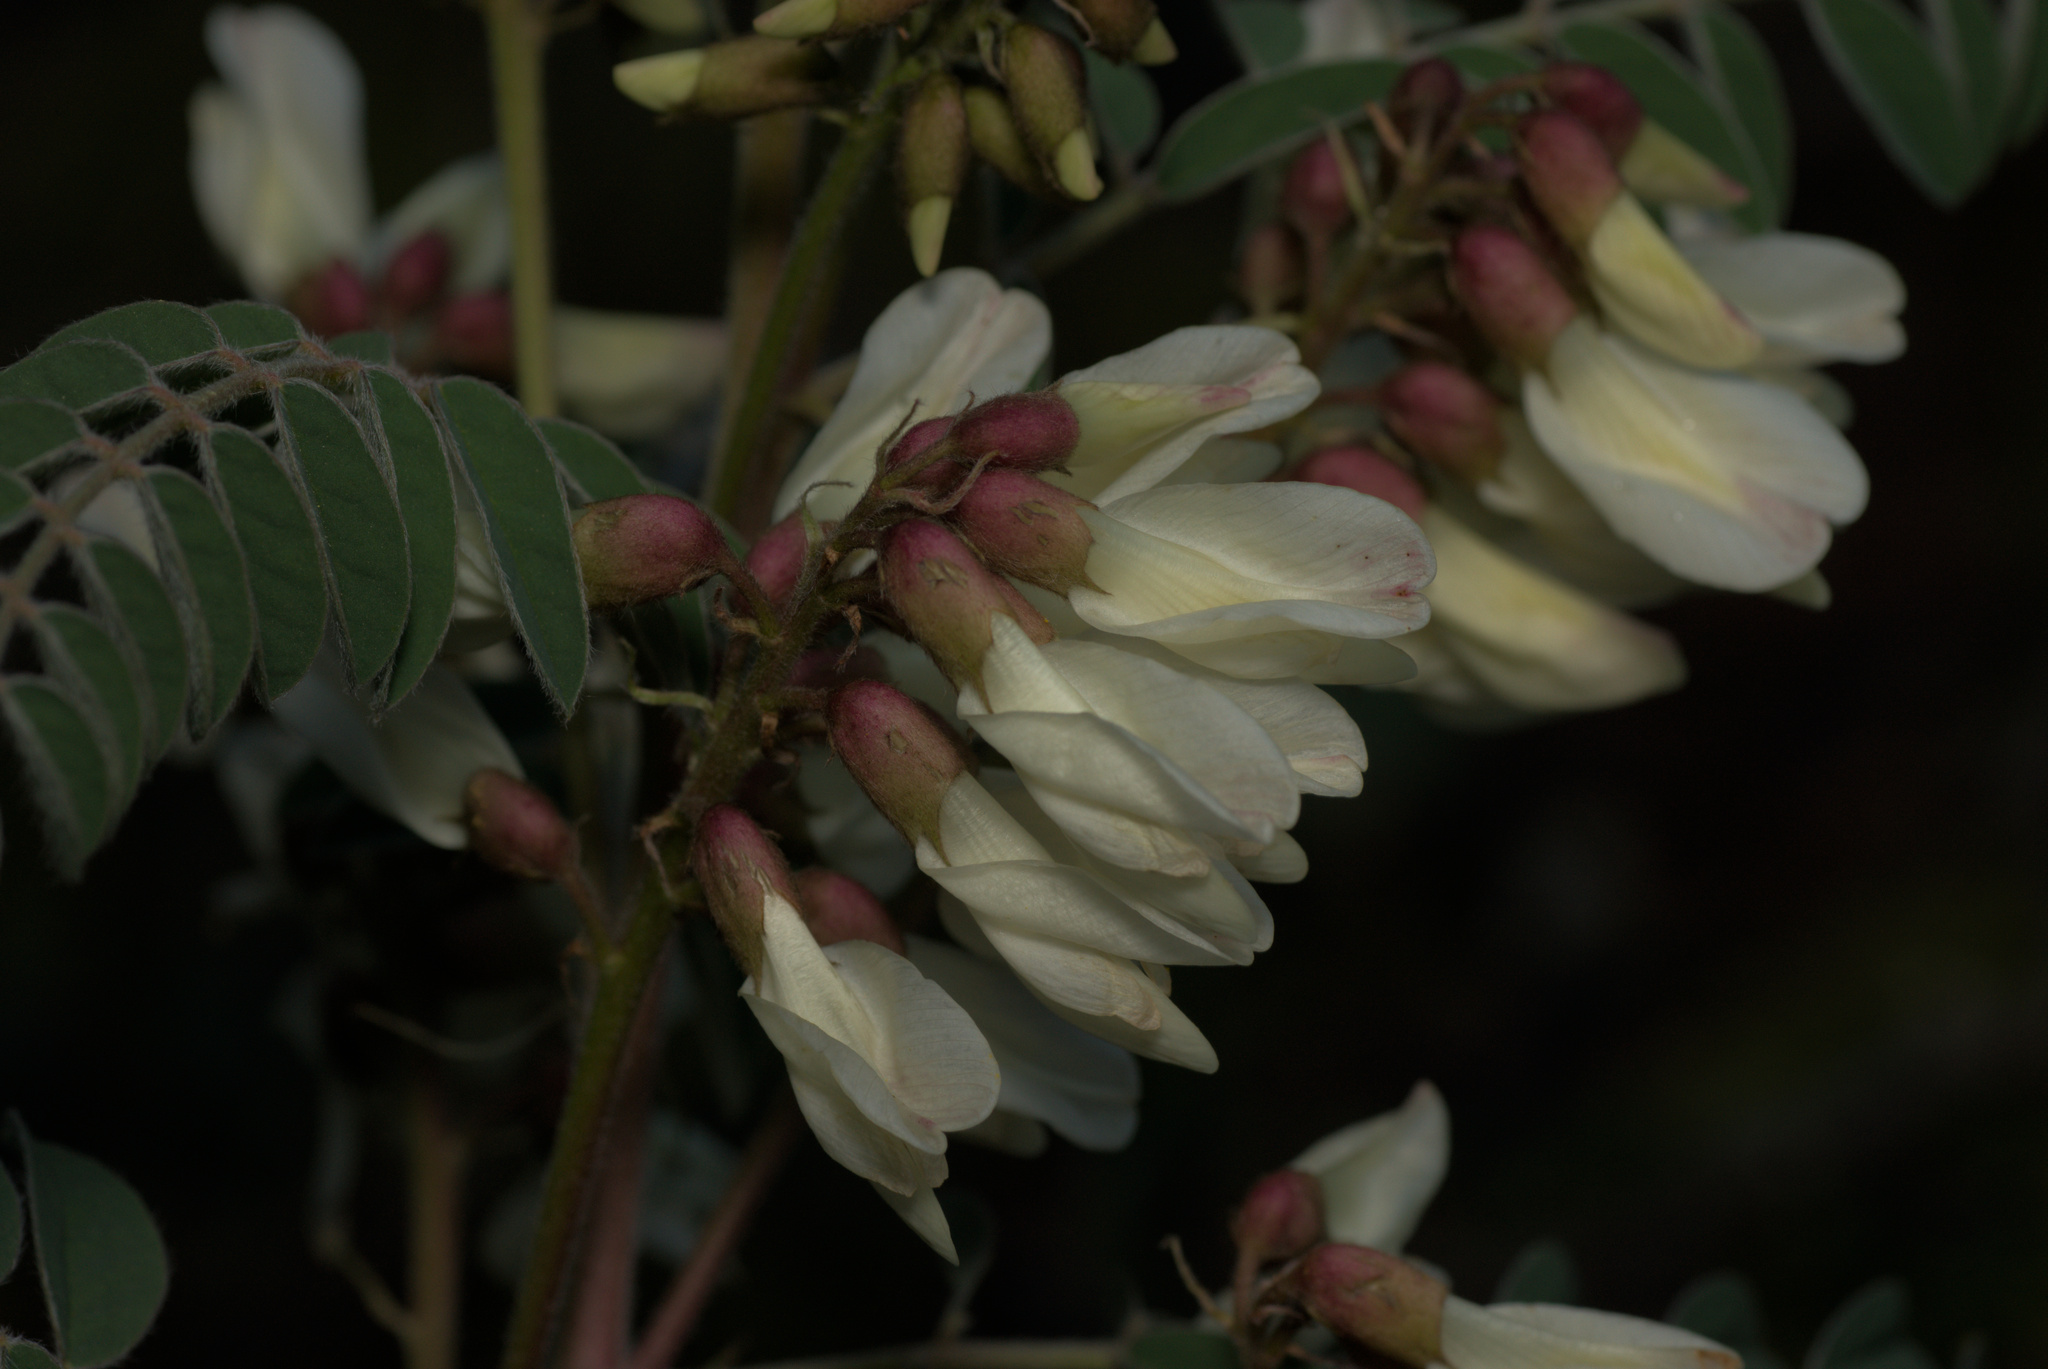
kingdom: Plantae
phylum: Tracheophyta
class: Magnoliopsida
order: Fabales
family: Fabaceae
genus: Erophaca
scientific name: Erophaca baetica
